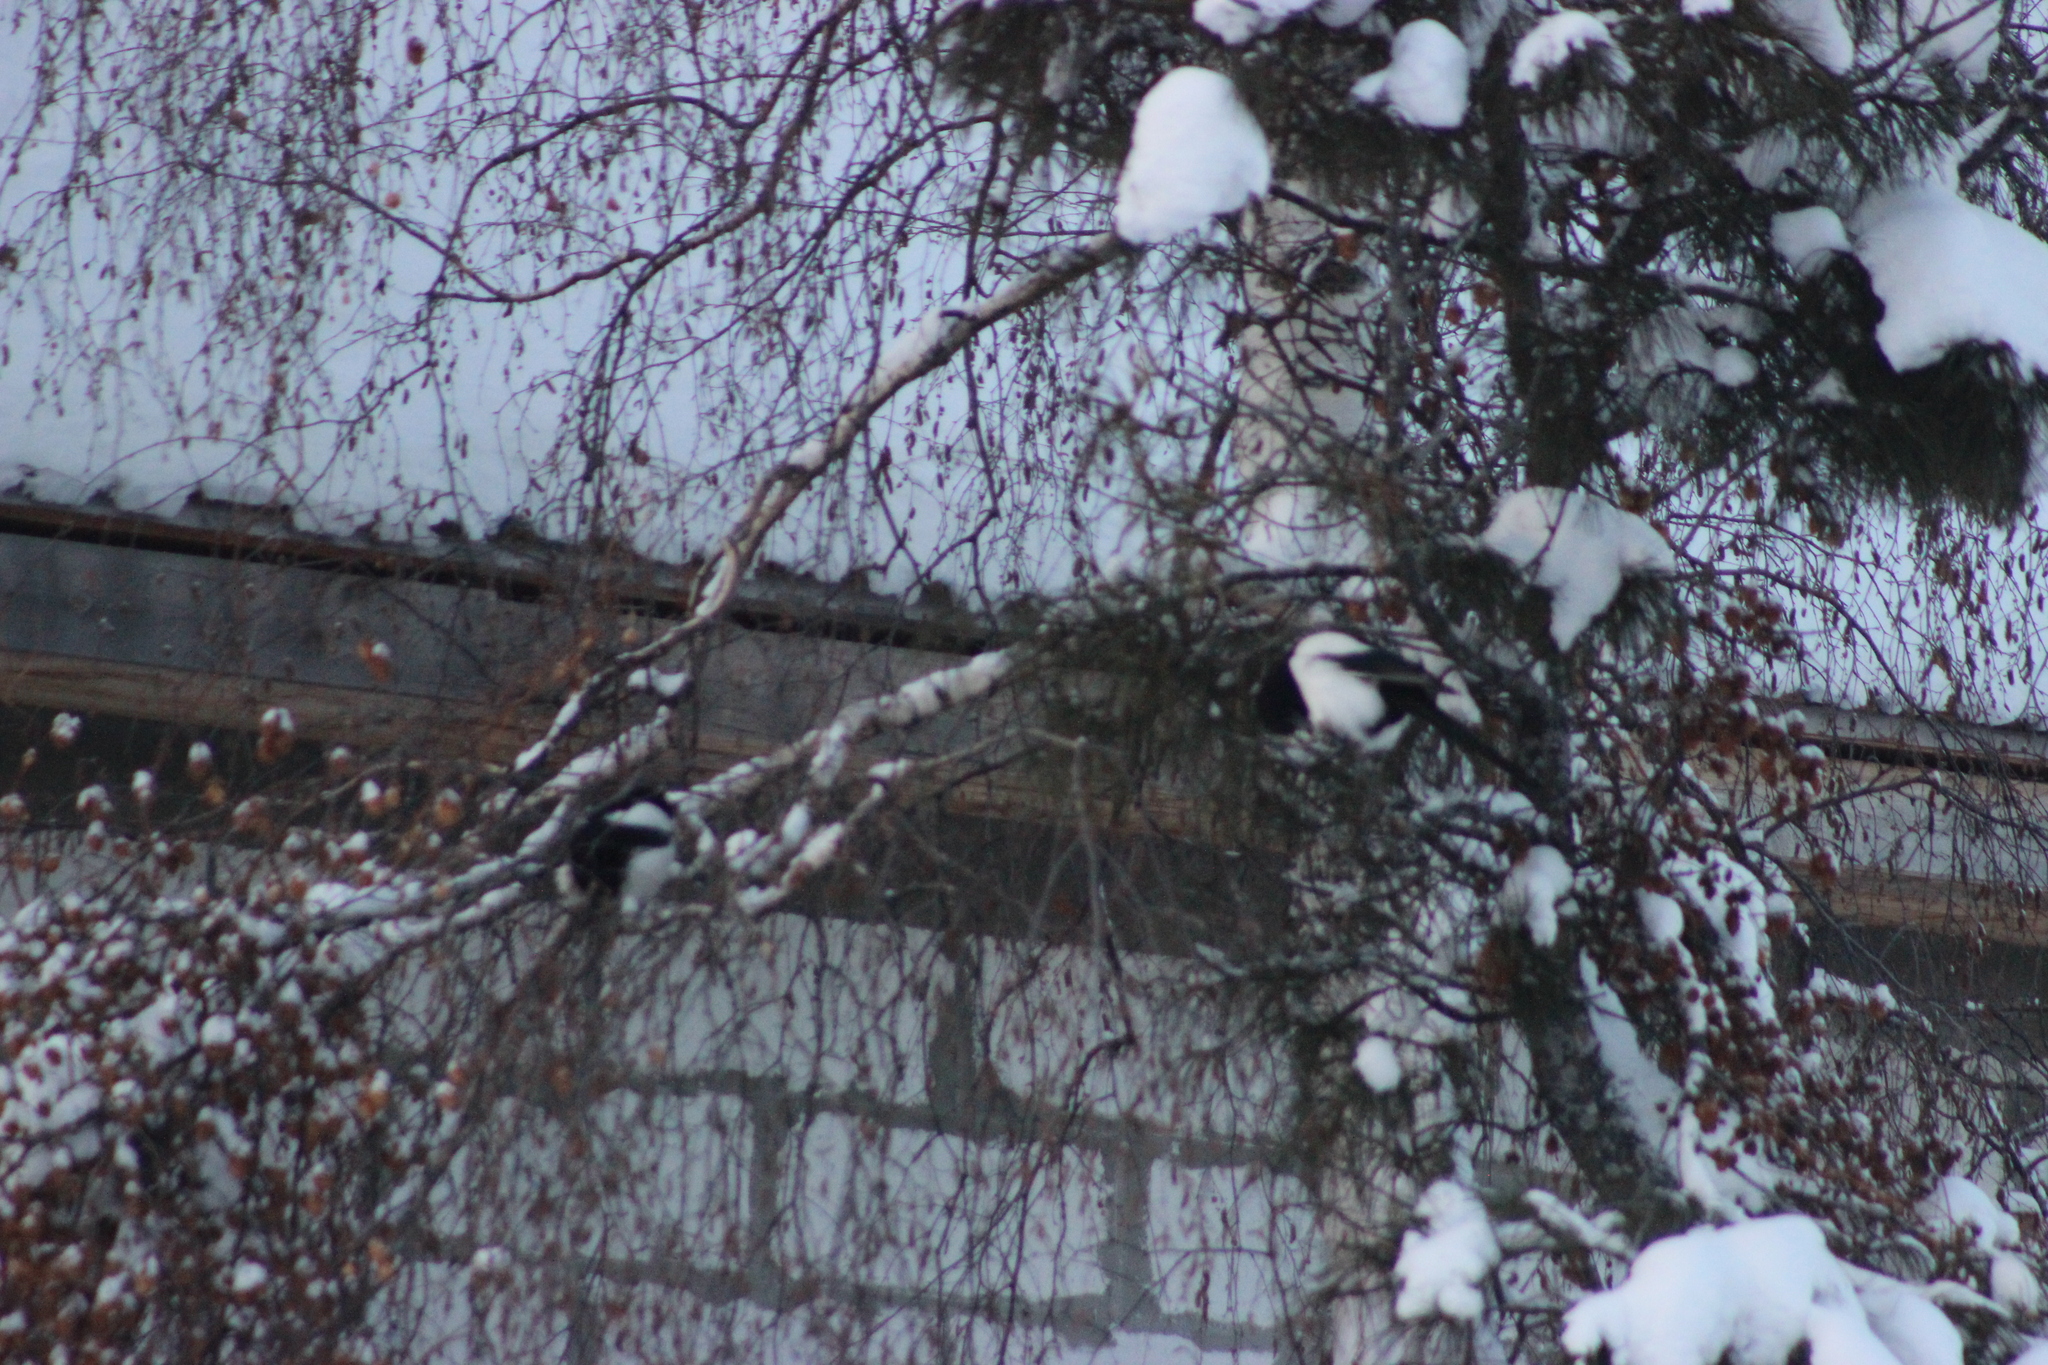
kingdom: Animalia
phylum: Chordata
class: Aves
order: Passeriformes
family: Corvidae
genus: Pica
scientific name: Pica pica
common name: Eurasian magpie
